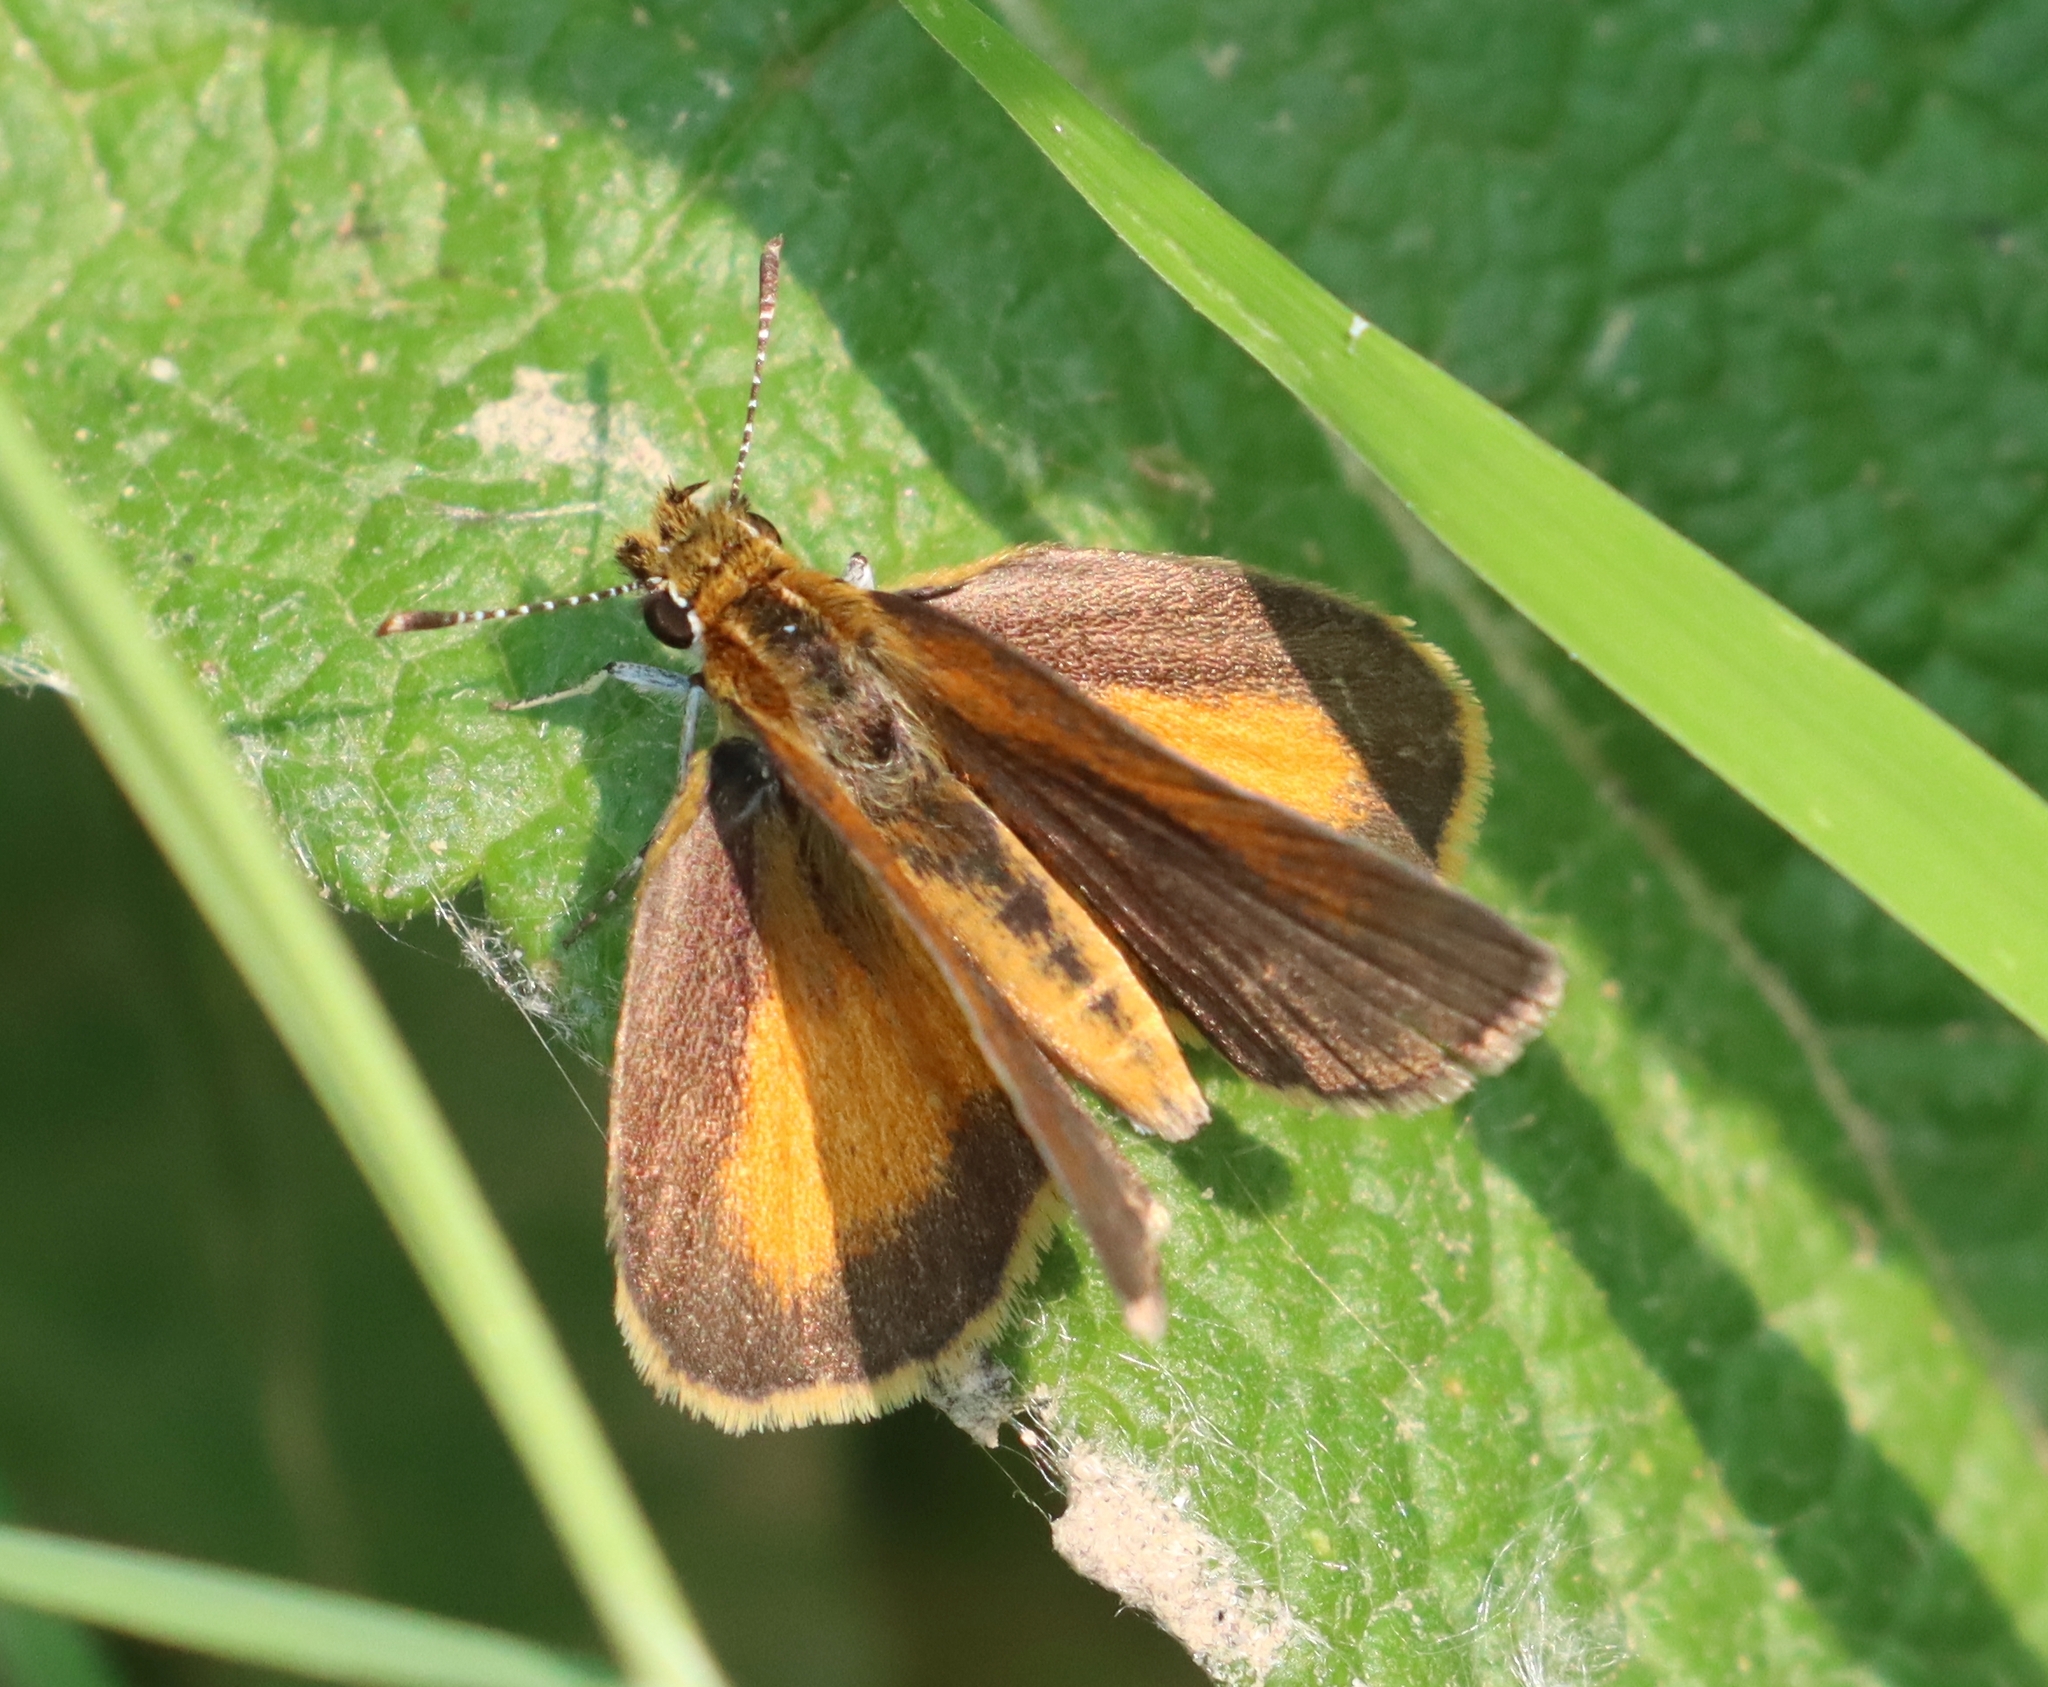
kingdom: Animalia
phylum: Arthropoda
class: Insecta
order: Lepidoptera
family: Hesperiidae
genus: Ancyloxypha
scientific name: Ancyloxypha numitor
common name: Least skipper
